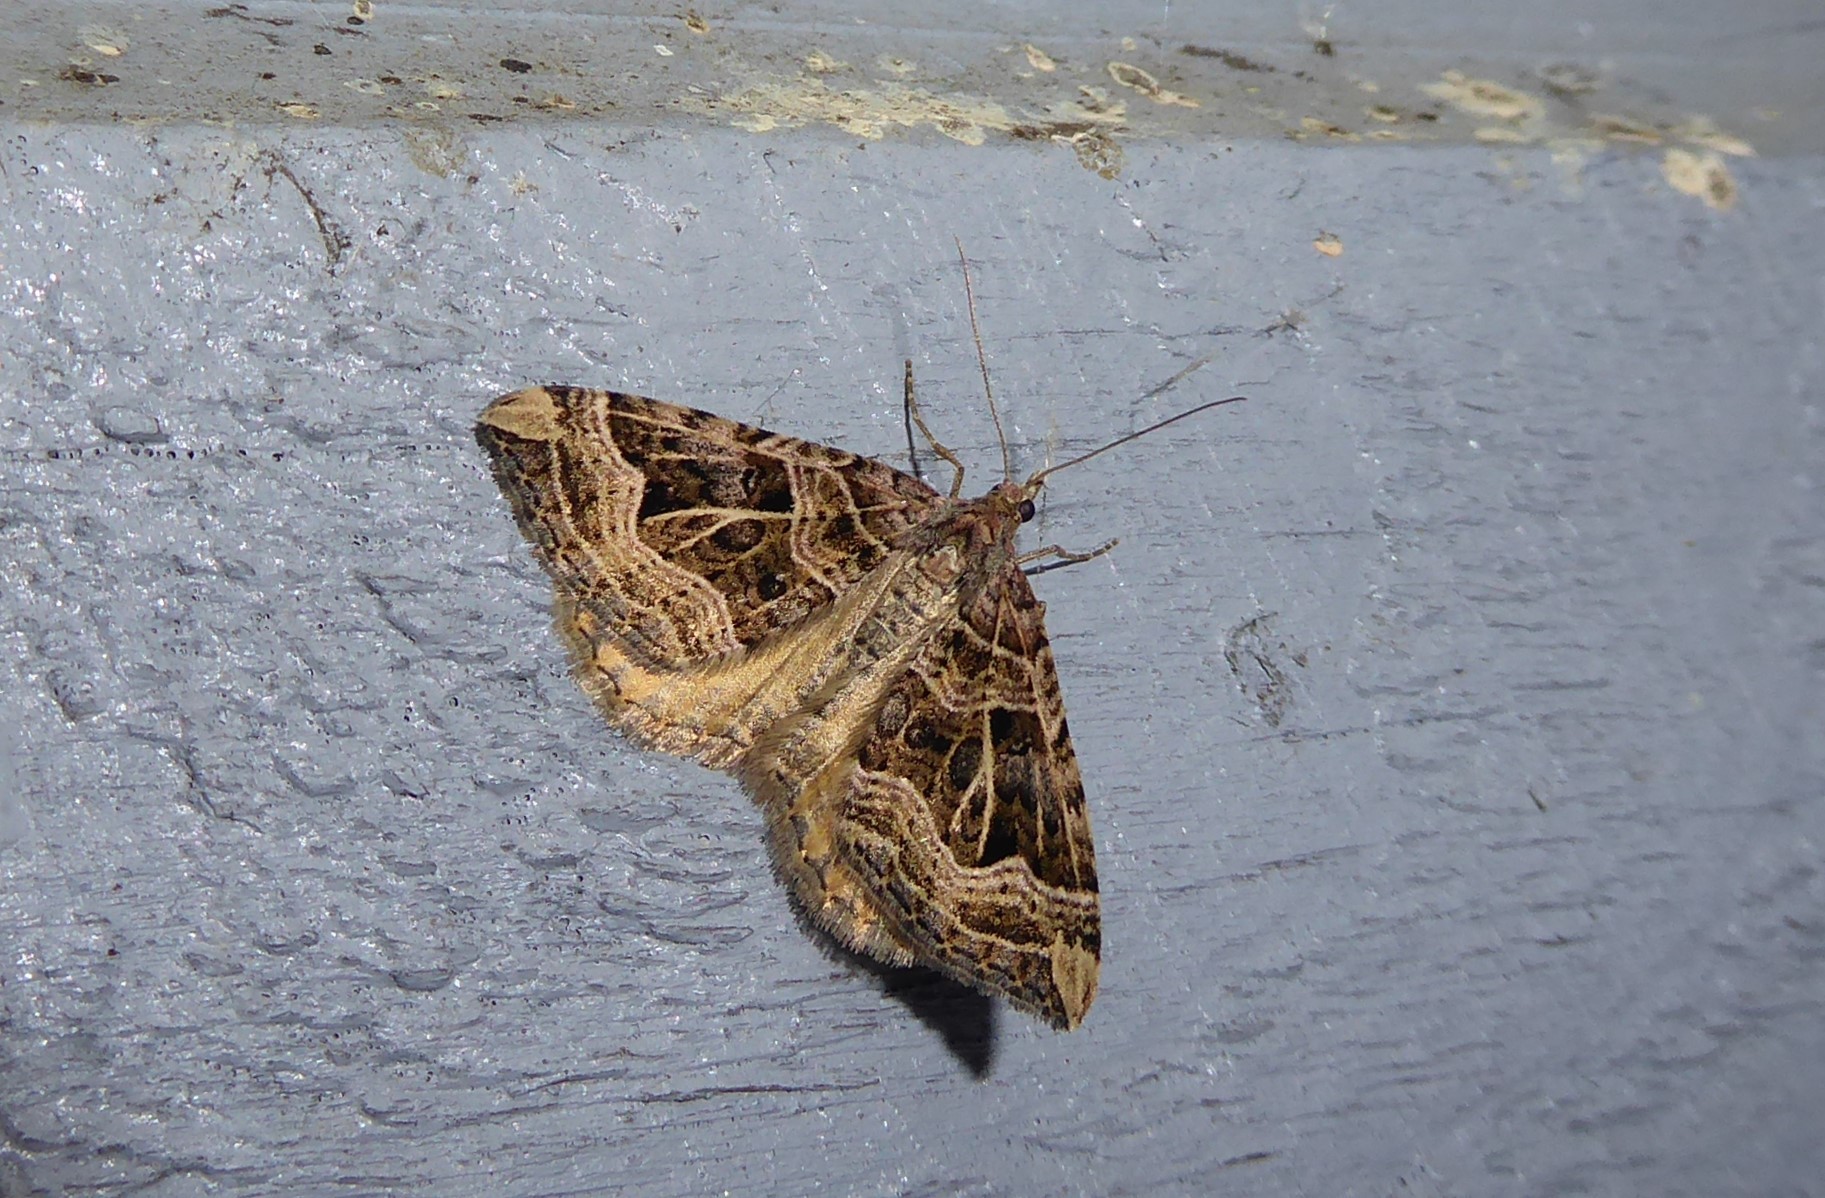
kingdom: Animalia
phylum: Arthropoda
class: Insecta
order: Lepidoptera
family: Geometridae
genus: Xanthorhoe
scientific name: Xanthorhoe semifissata
